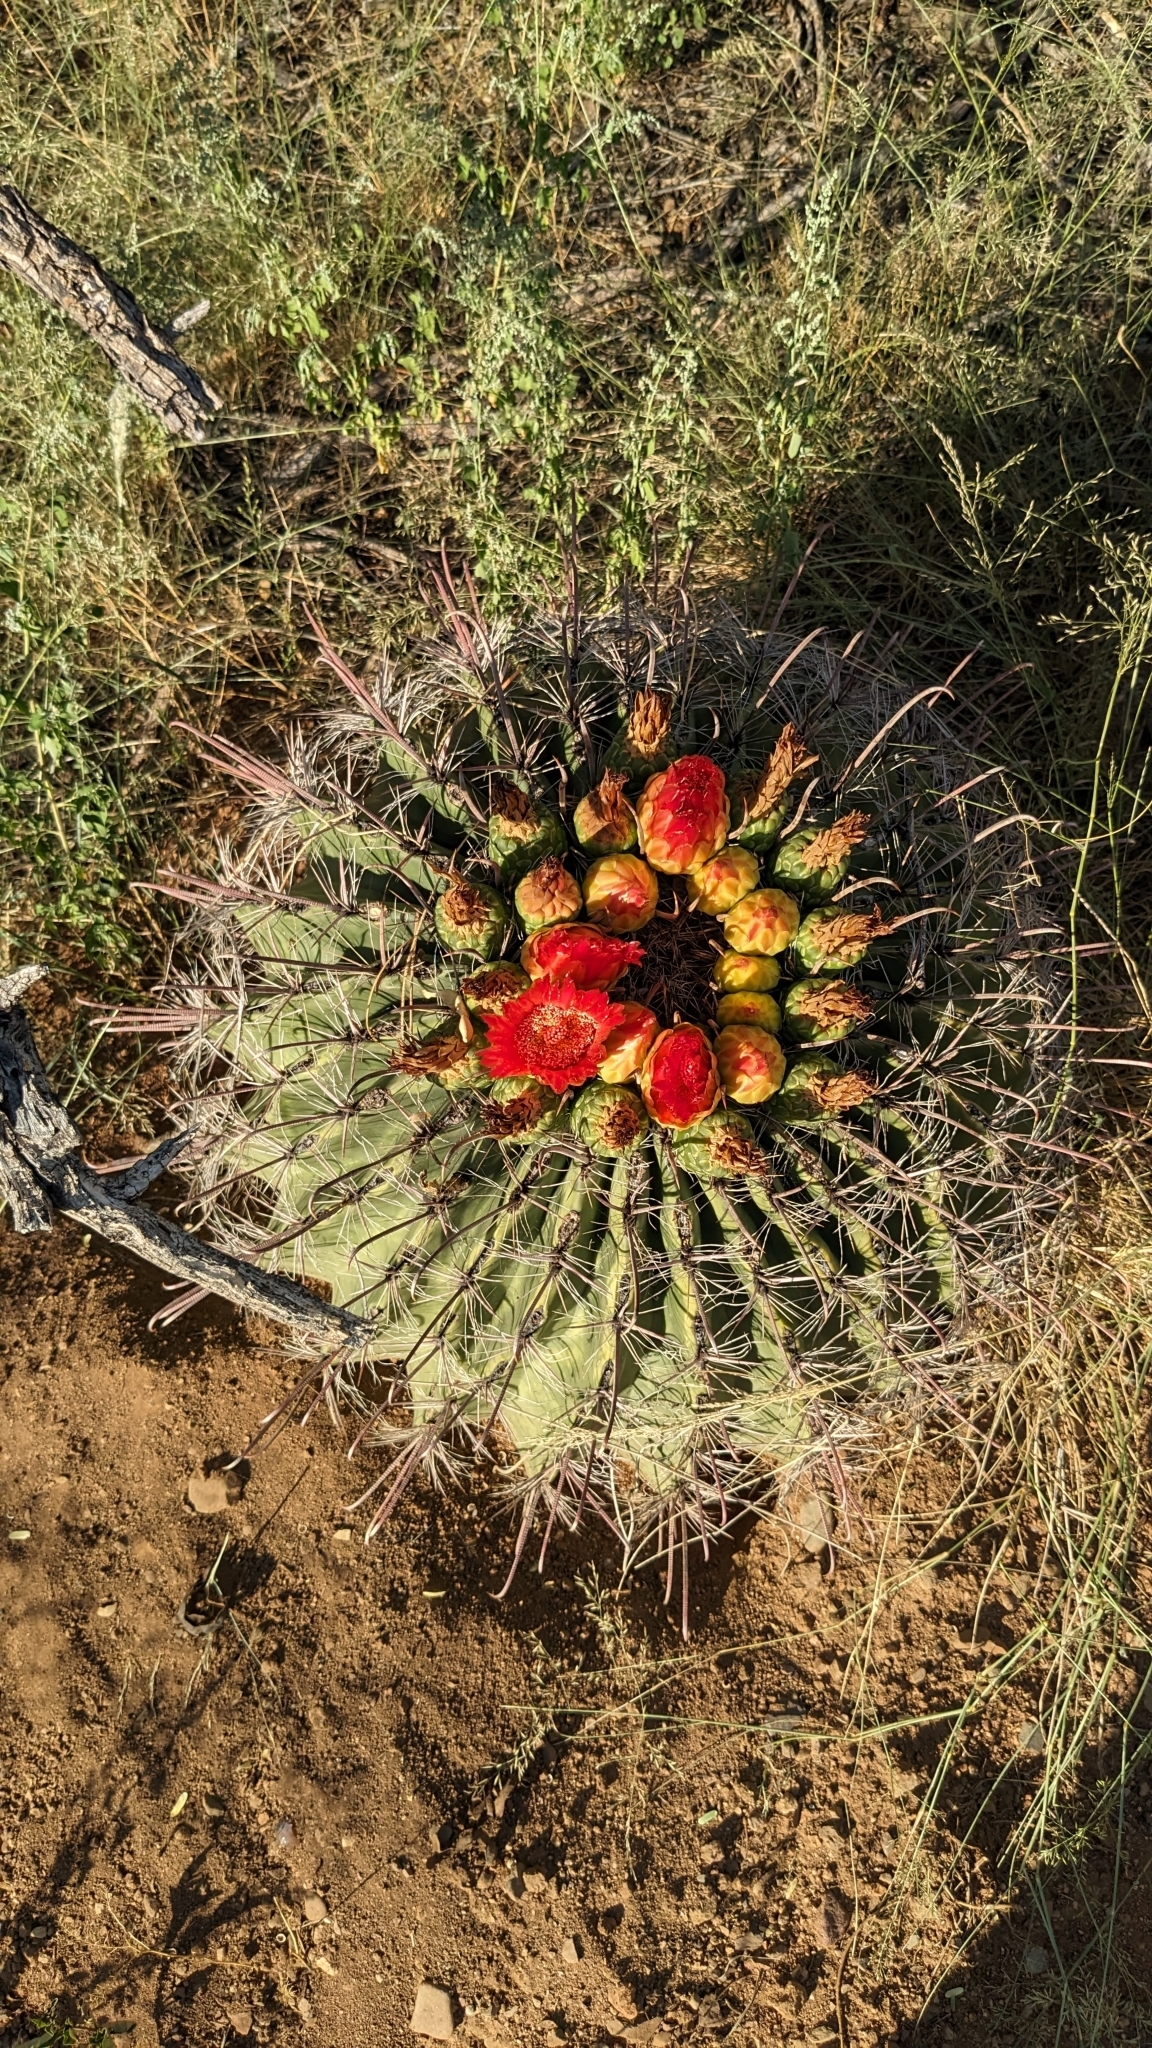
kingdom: Plantae
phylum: Tracheophyta
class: Magnoliopsida
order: Caryophyllales
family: Cactaceae
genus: Ferocactus
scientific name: Ferocactus wislizeni
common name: Candy barrel cactus
